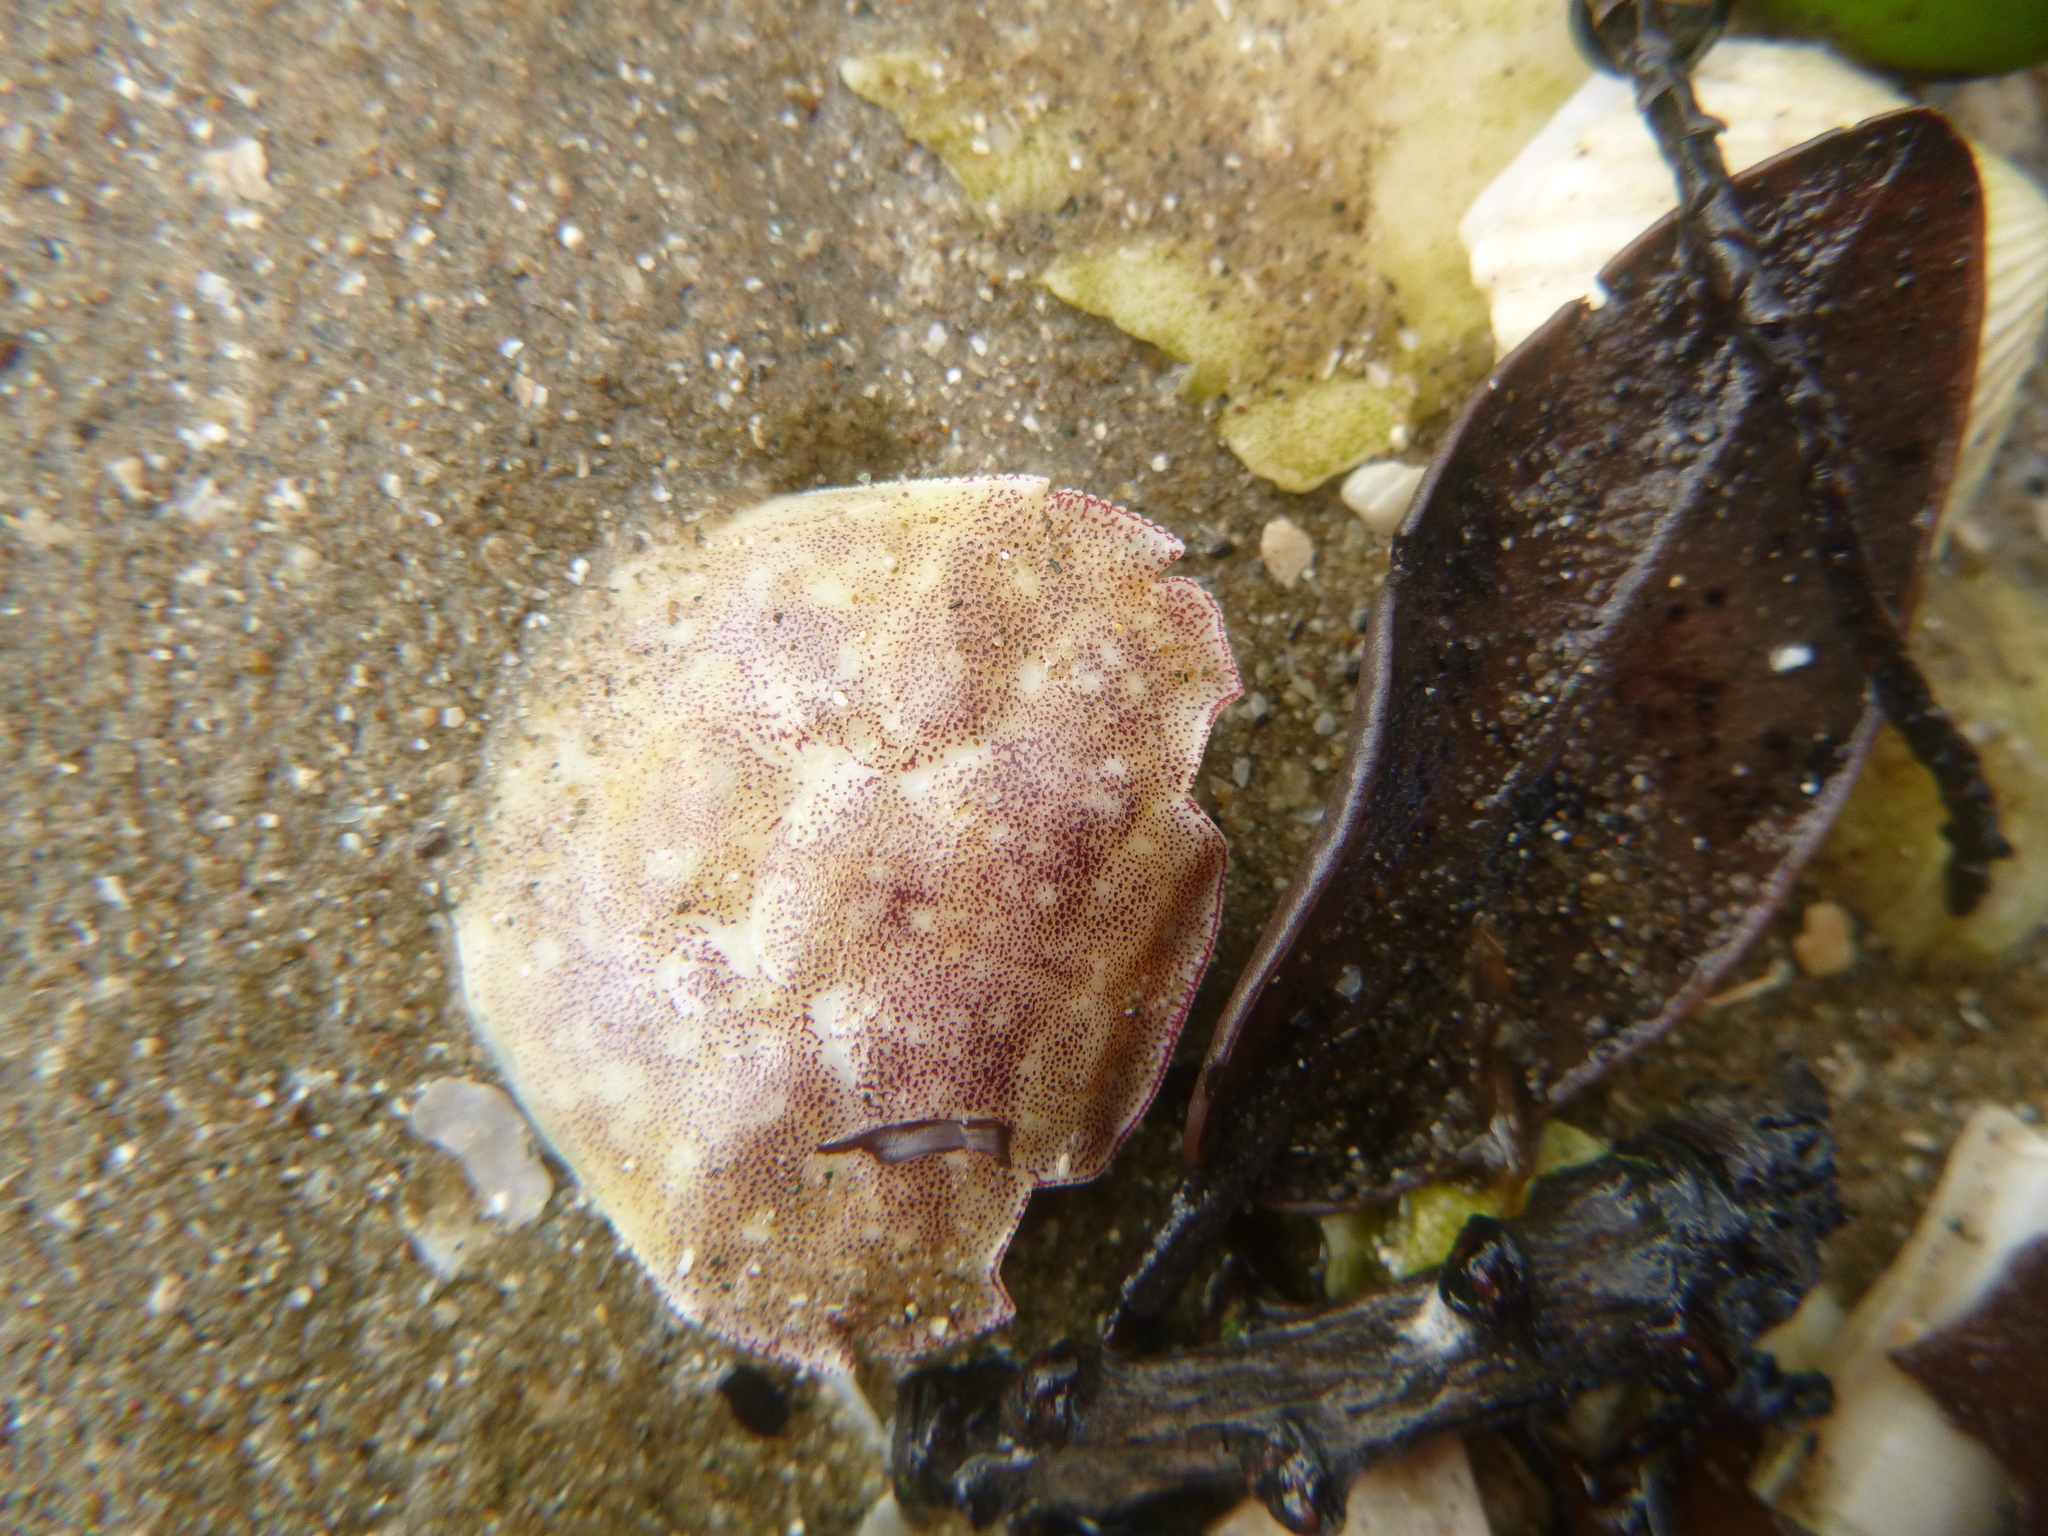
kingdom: Animalia
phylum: Arthropoda
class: Malacostraca
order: Decapoda
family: Varunidae
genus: Hemigrapsus
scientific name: Hemigrapsus crenulatus
